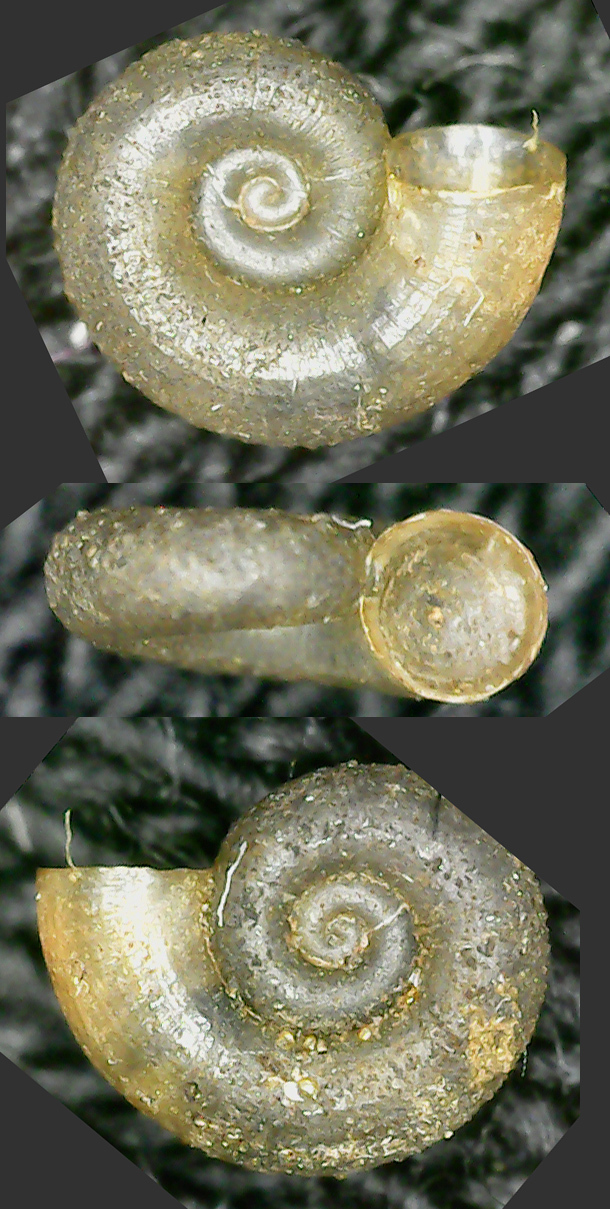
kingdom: Animalia
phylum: Mollusca
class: Gastropoda
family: Valvatidae
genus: Valvata
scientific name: Valvata cristata
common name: Flat valve snail
